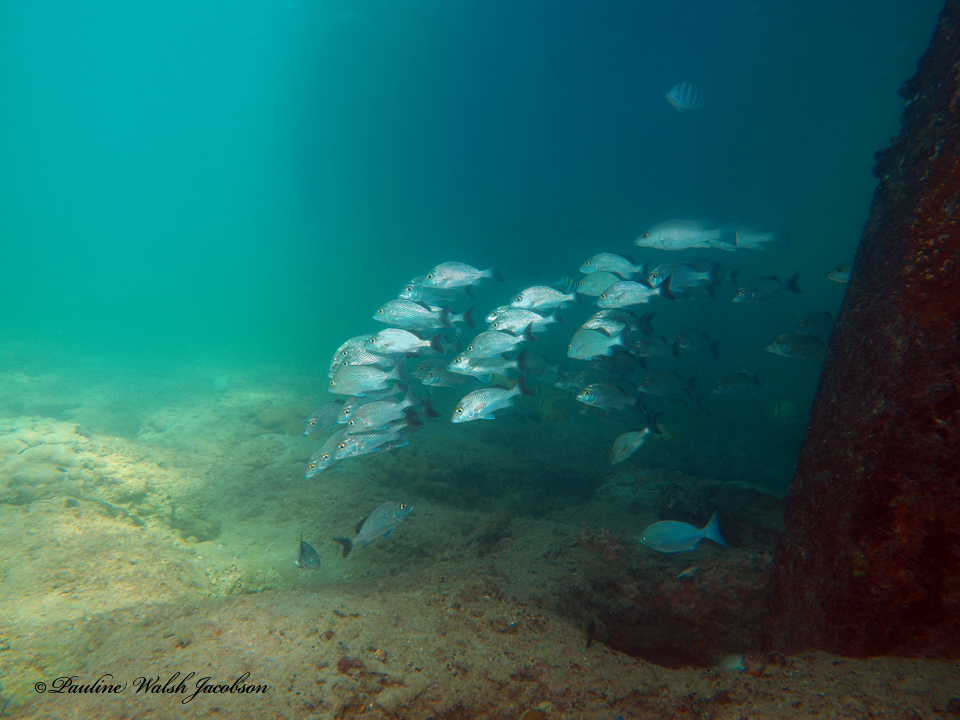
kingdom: Animalia
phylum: Chordata
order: Perciformes
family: Haemulidae
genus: Haemulon
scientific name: Haemulon parra
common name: Sailor's choice
